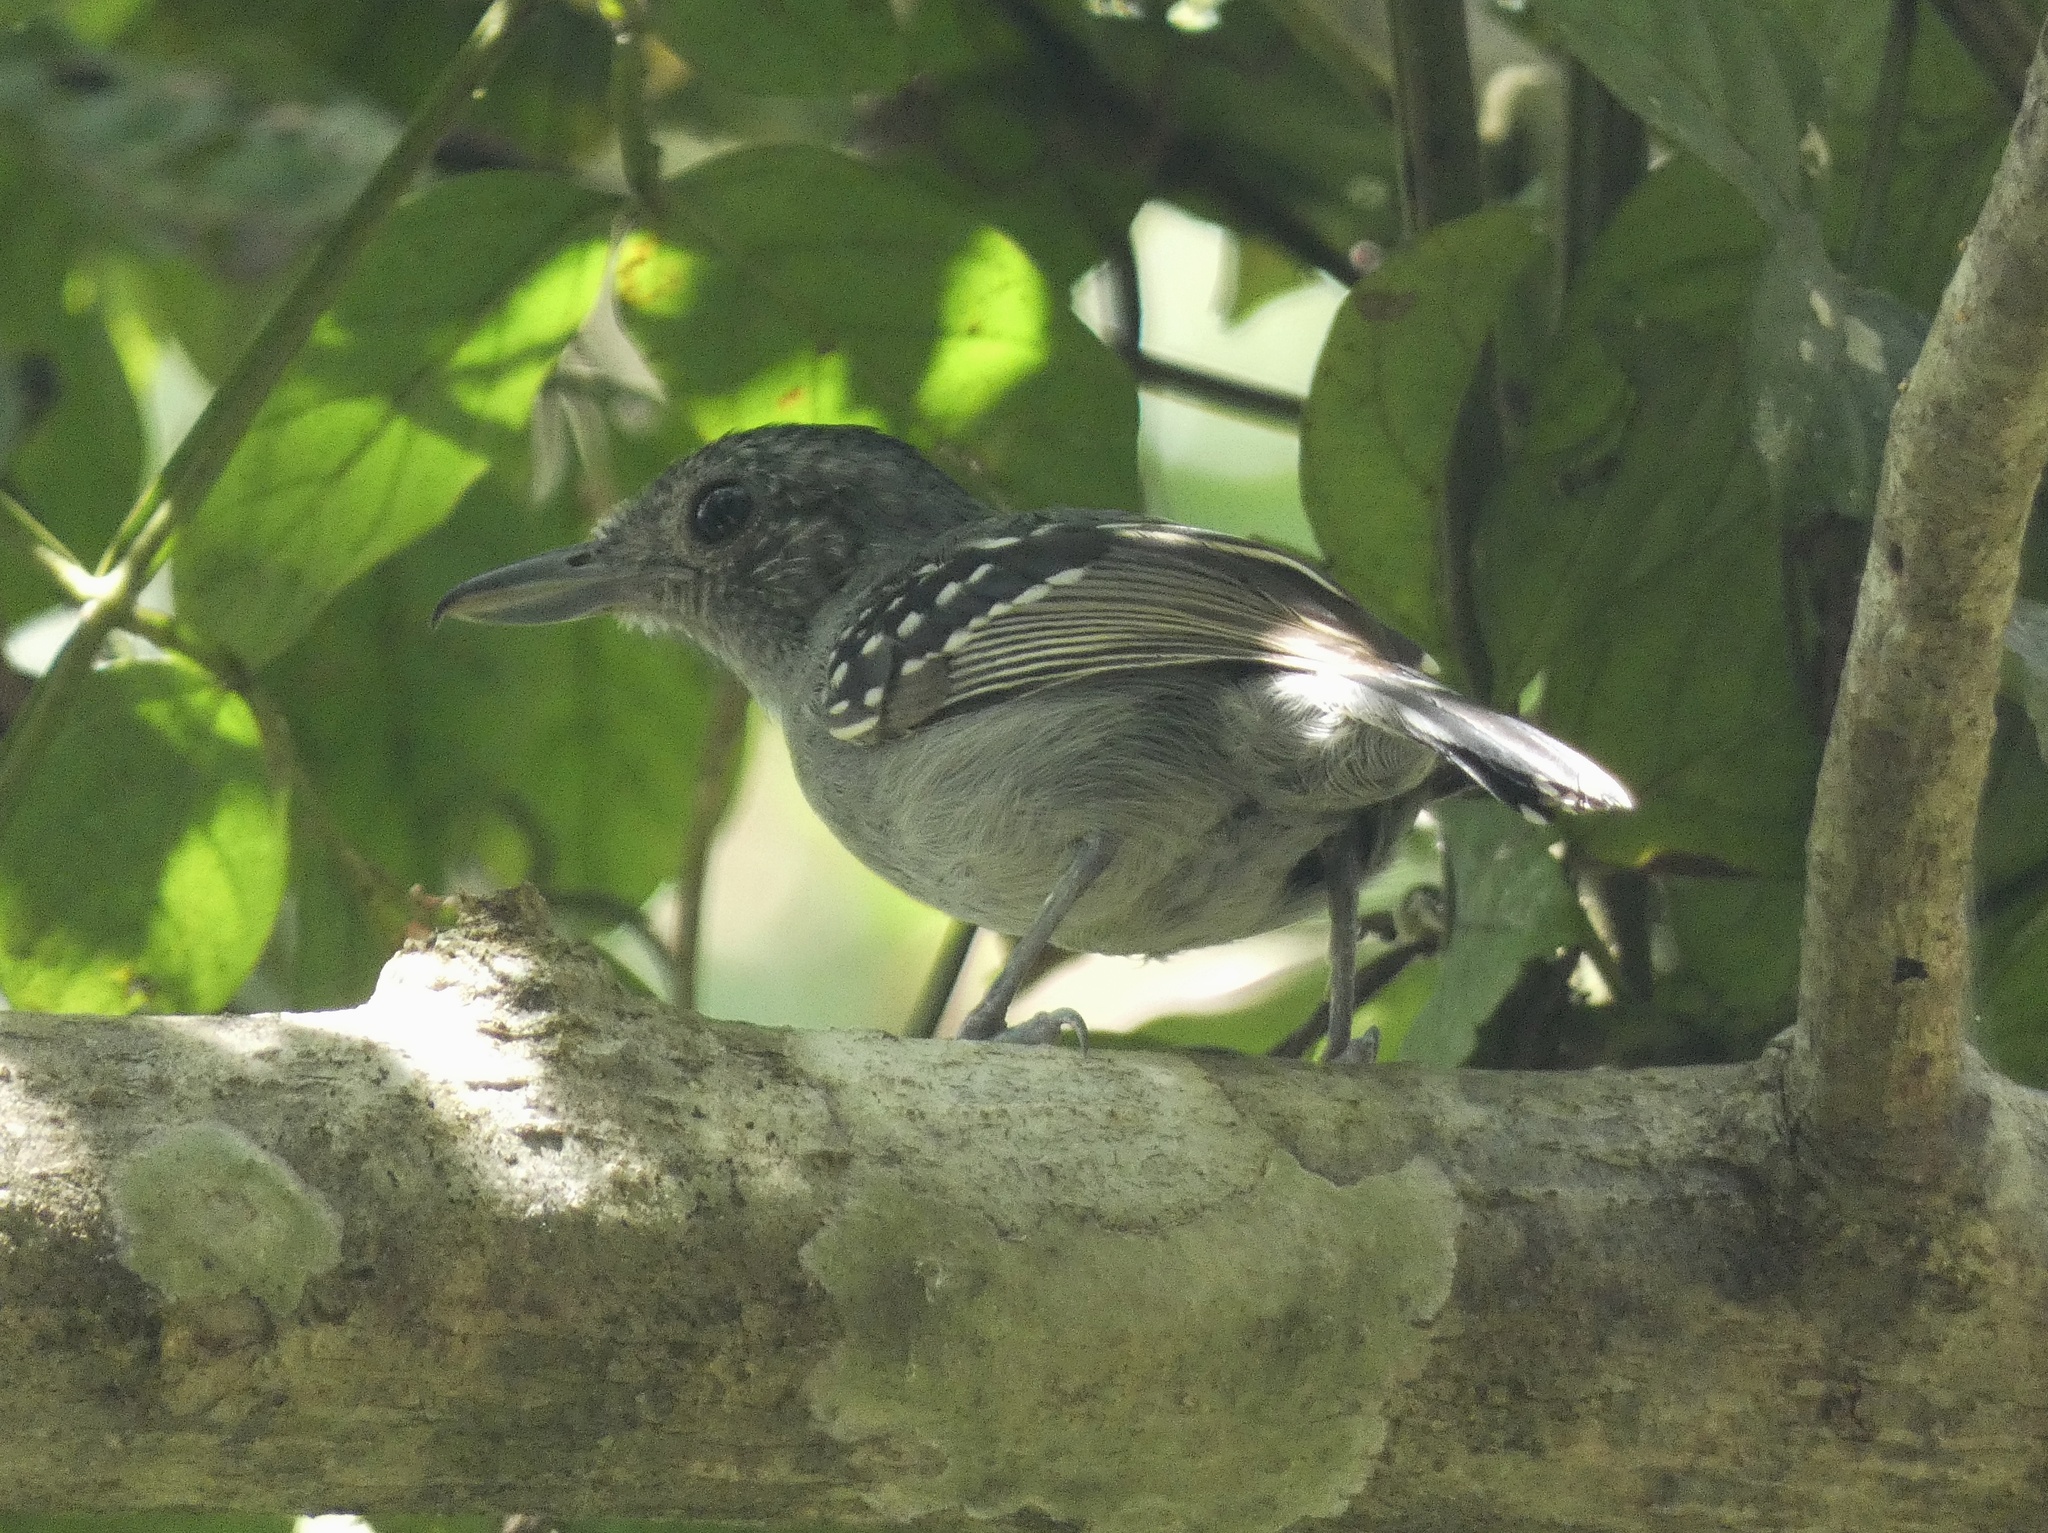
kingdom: Animalia
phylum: Chordata
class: Aves
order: Passeriformes
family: Thamnophilidae
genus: Thamnophilus
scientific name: Thamnophilus atrinucha
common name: Black-crowned antshrike
